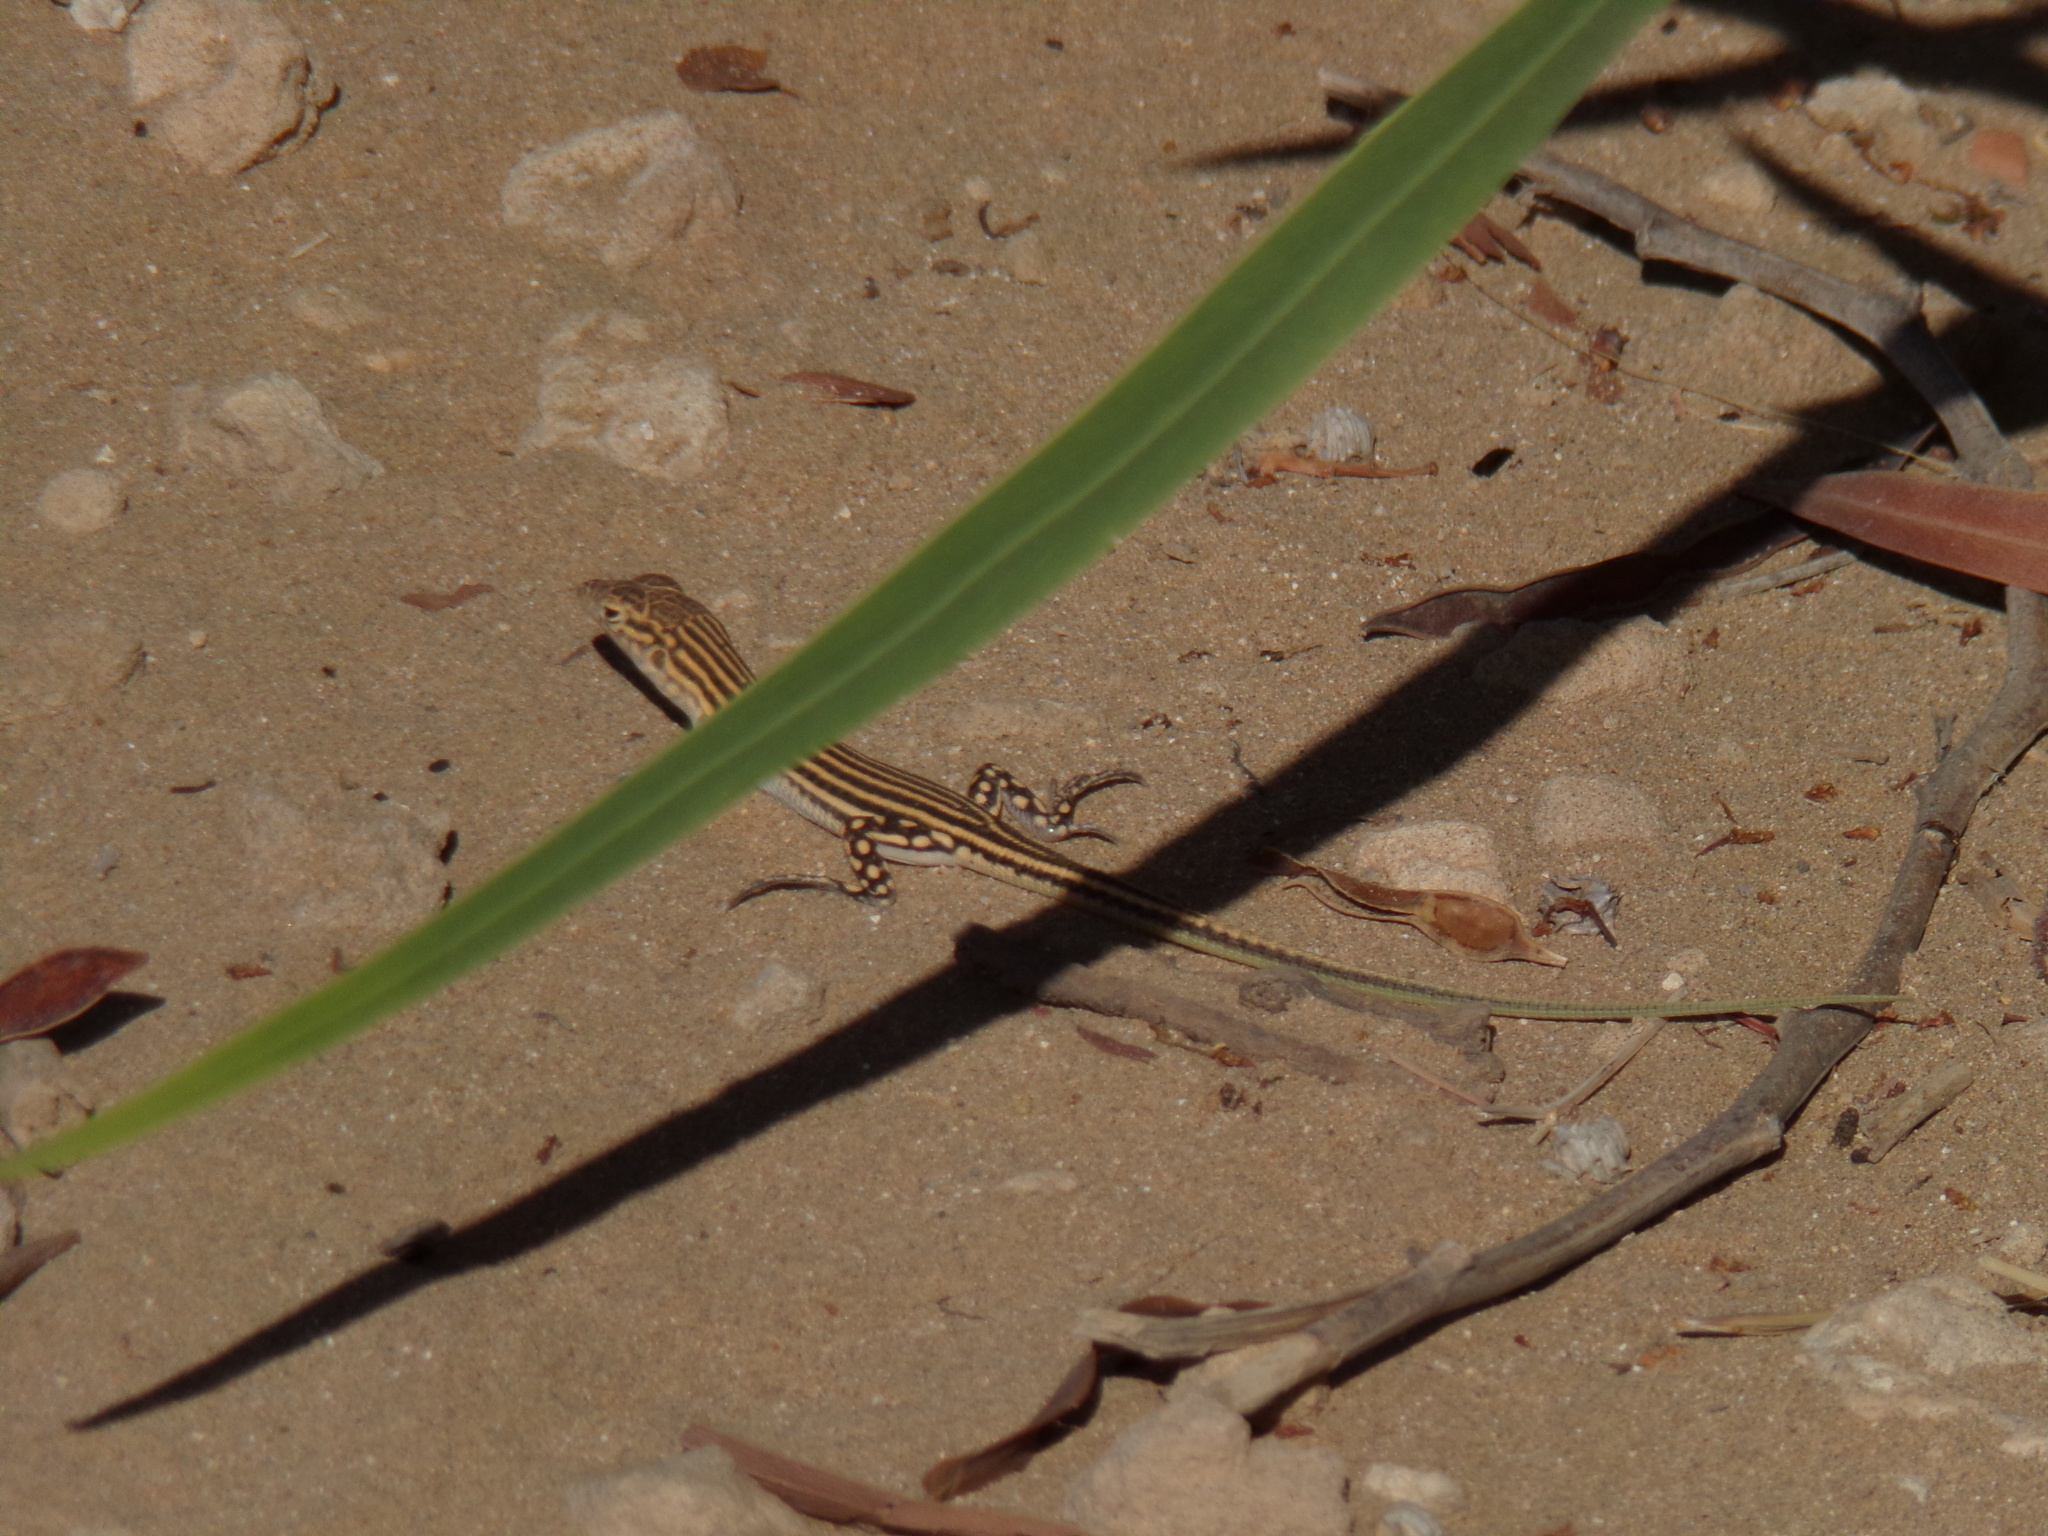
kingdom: Animalia
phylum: Chordata
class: Squamata
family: Lacertidae
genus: Acanthodactylus
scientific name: Acanthodactylus schreiberi
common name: Schreiber's fringe-fingered lizard
